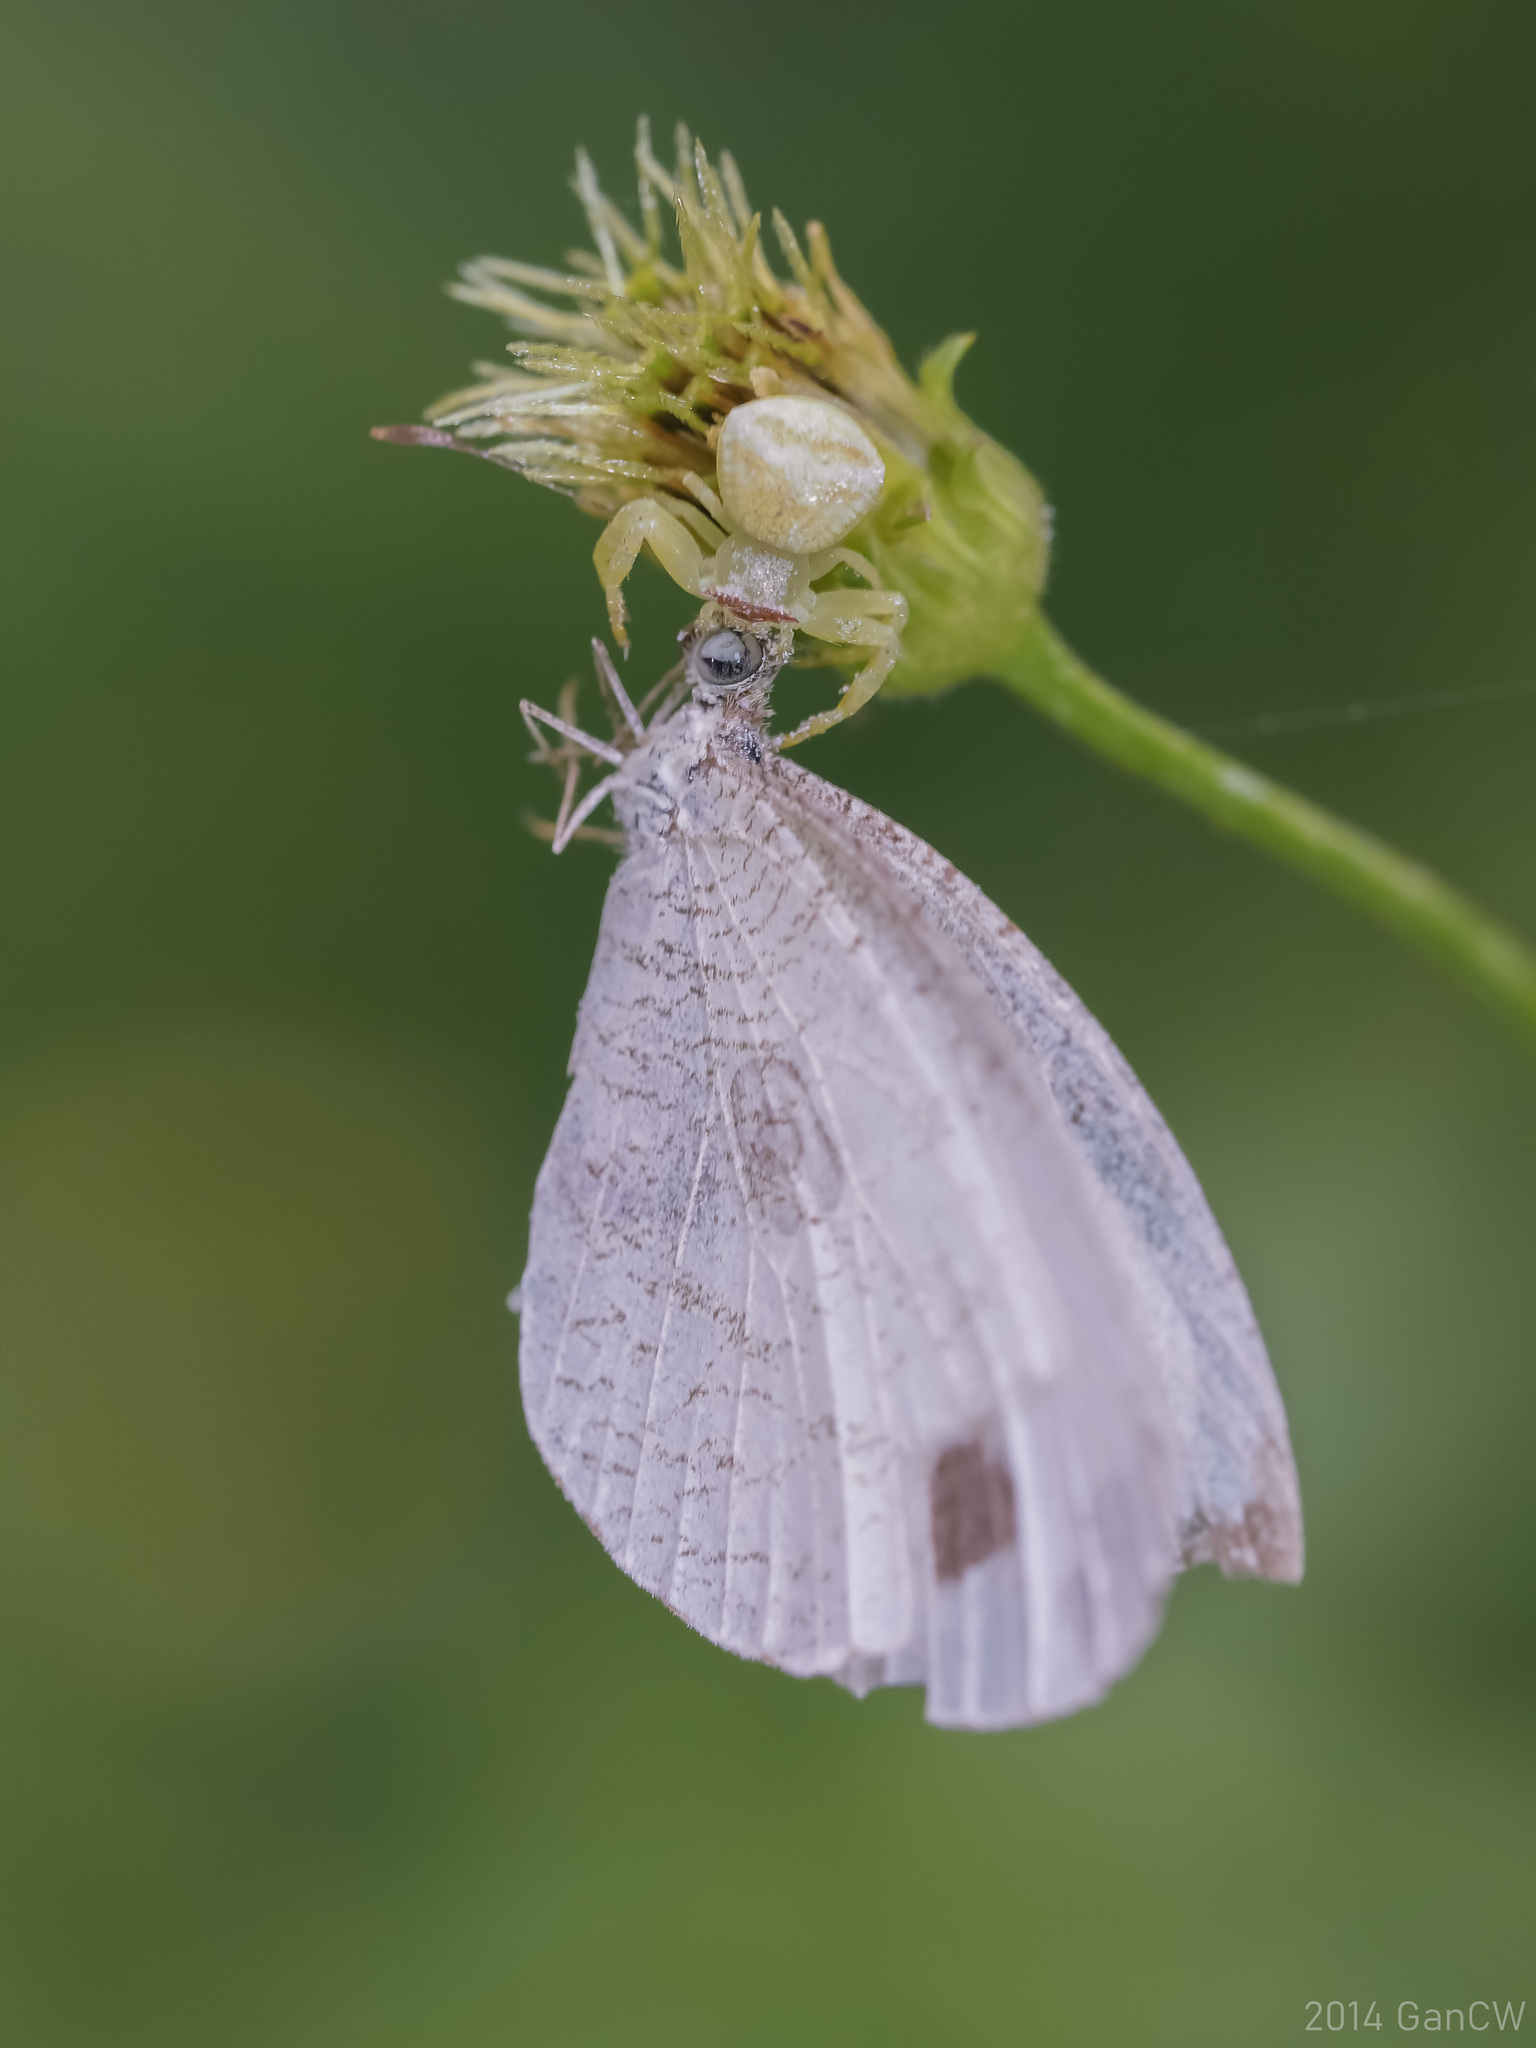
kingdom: Animalia
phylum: Arthropoda
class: Insecta
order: Lepidoptera
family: Pieridae
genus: Leptosia
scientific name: Leptosia nina
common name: Psyche
